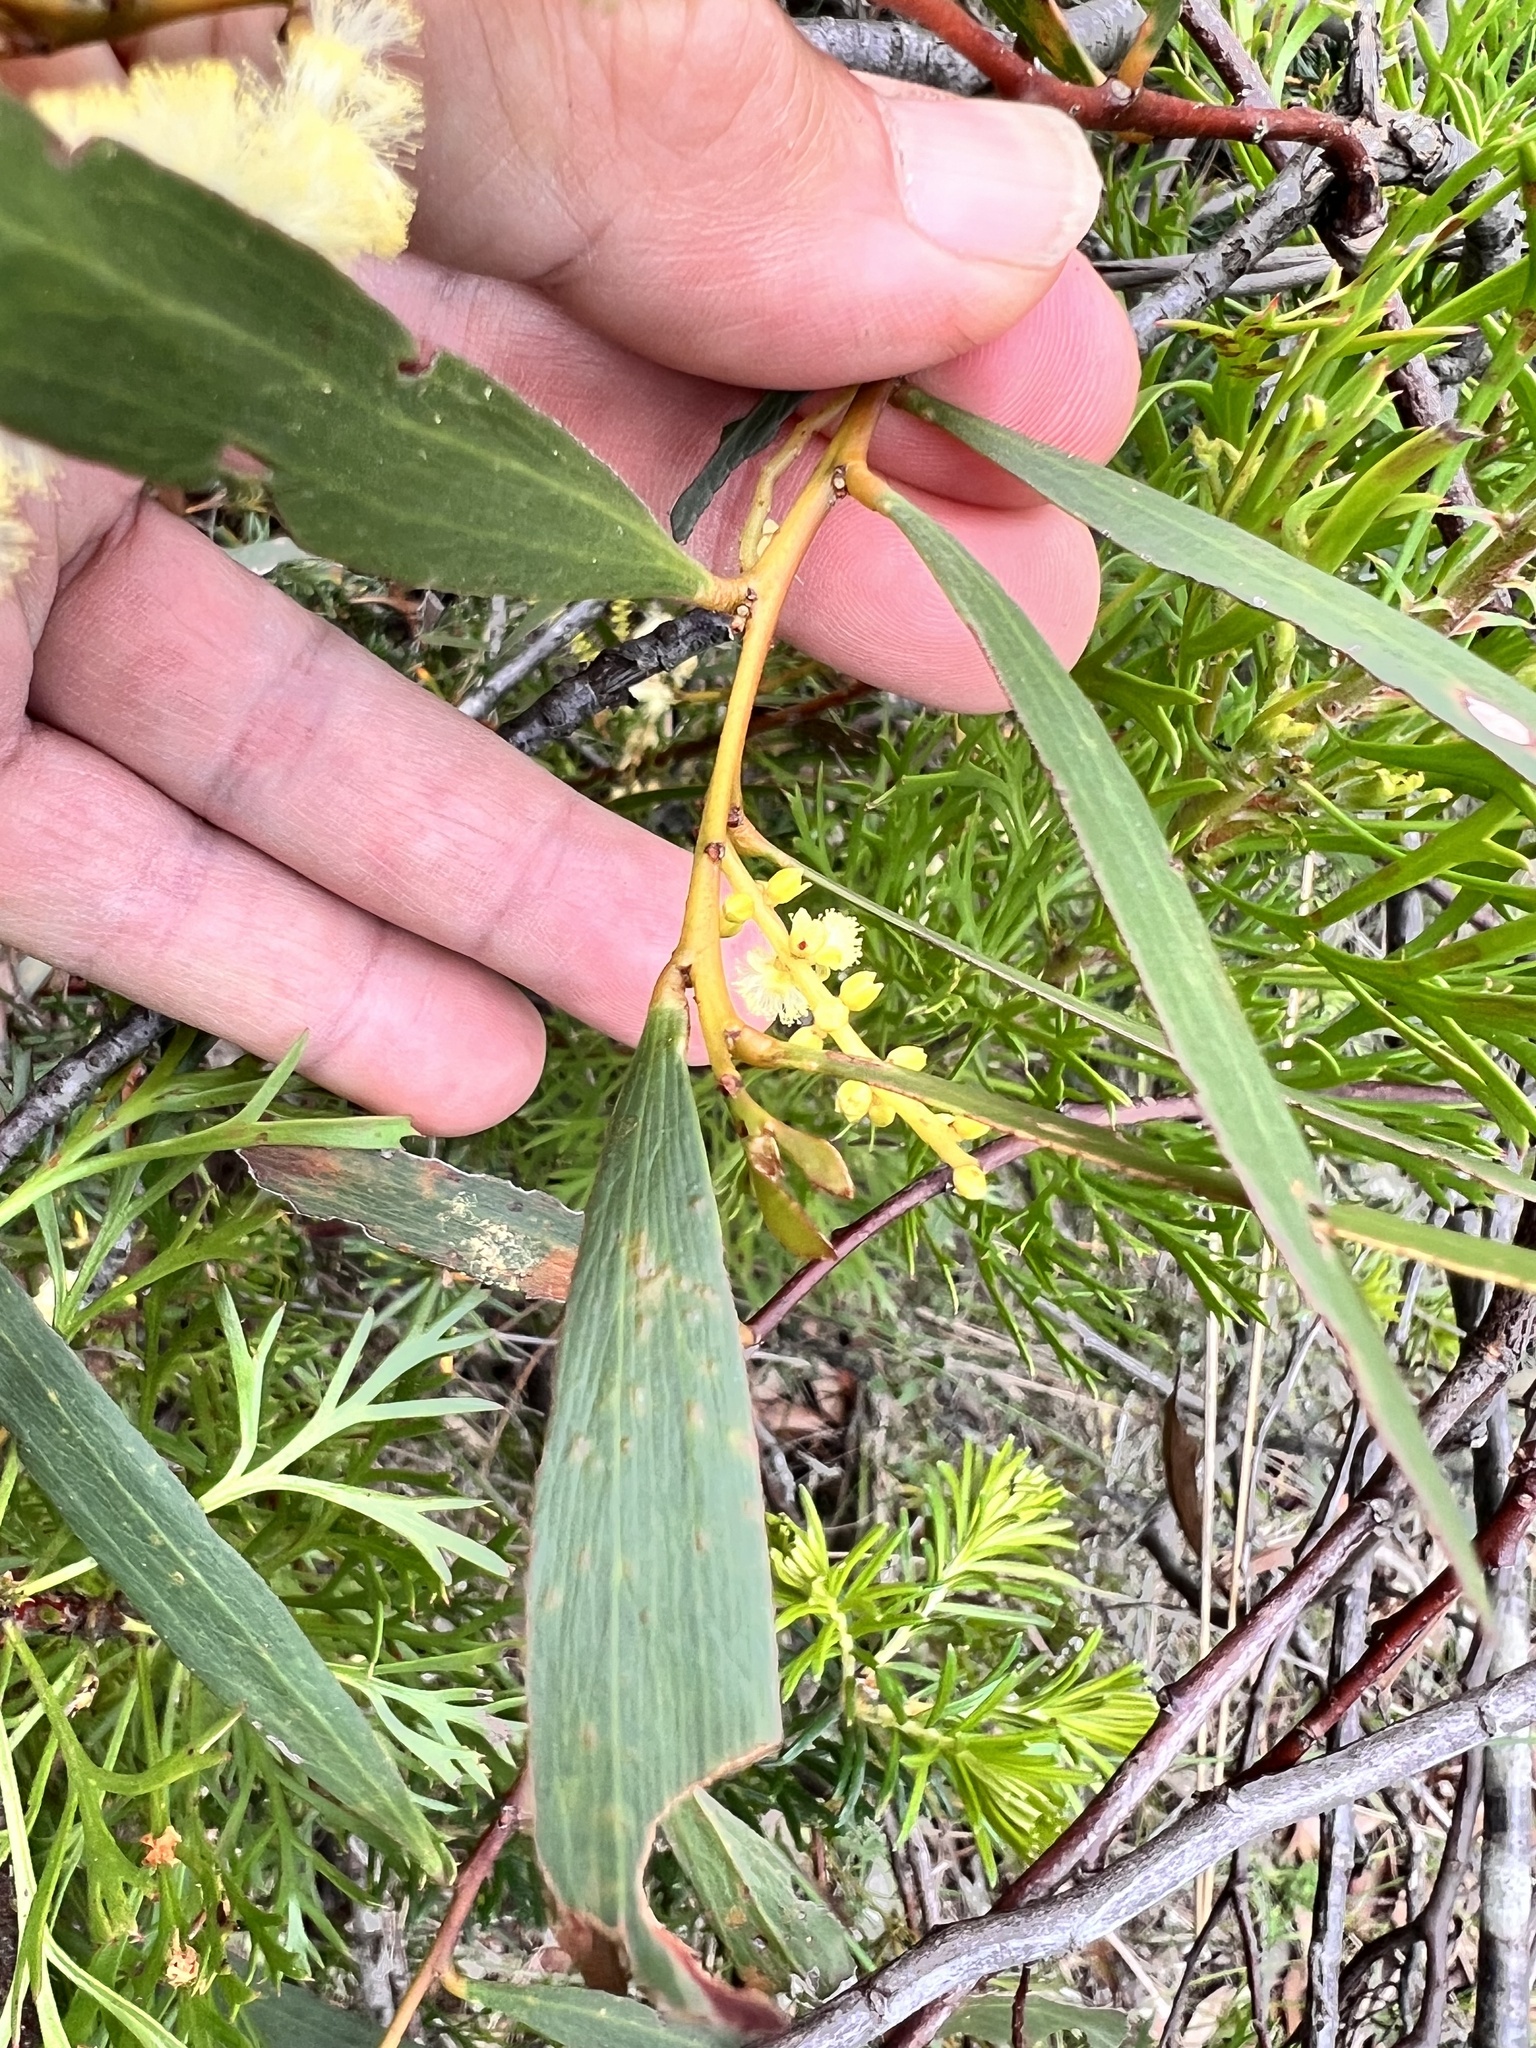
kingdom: Plantae
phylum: Tracheophyta
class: Magnoliopsida
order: Fabales
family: Fabaceae
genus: Acacia
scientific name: Acacia obtusifolia
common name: Stiff-leaf wattle
